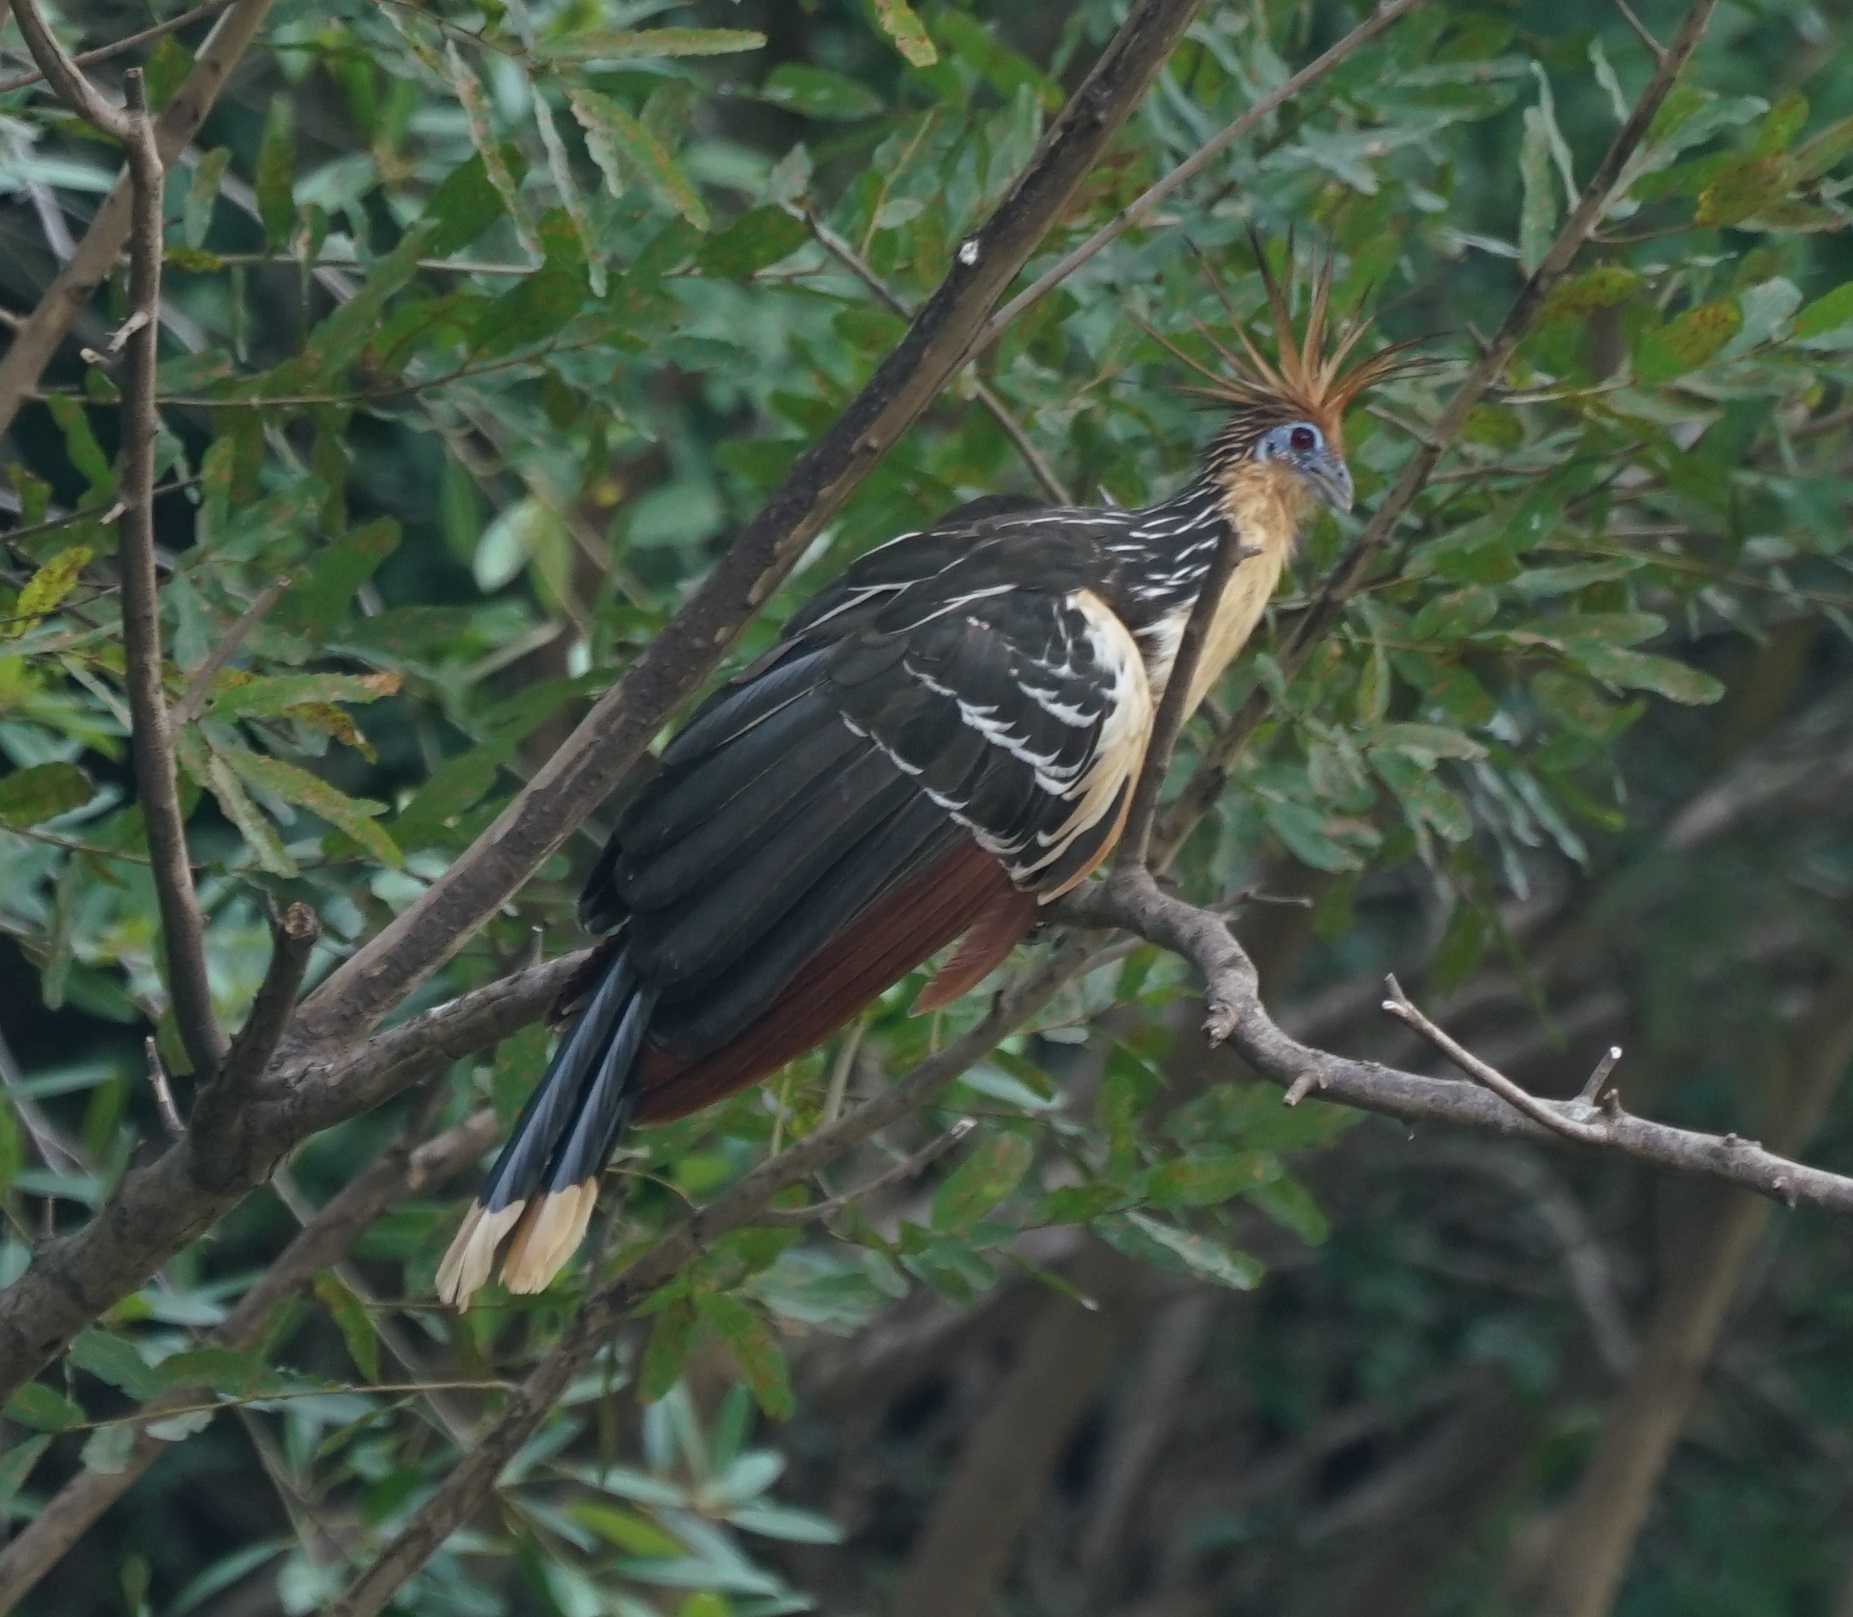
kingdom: Animalia
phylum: Chordata
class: Aves
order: Opisthocomiformes
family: Opisthocomidae
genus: Opisthocomus
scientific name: Opisthocomus hoazin
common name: Hoatzin
